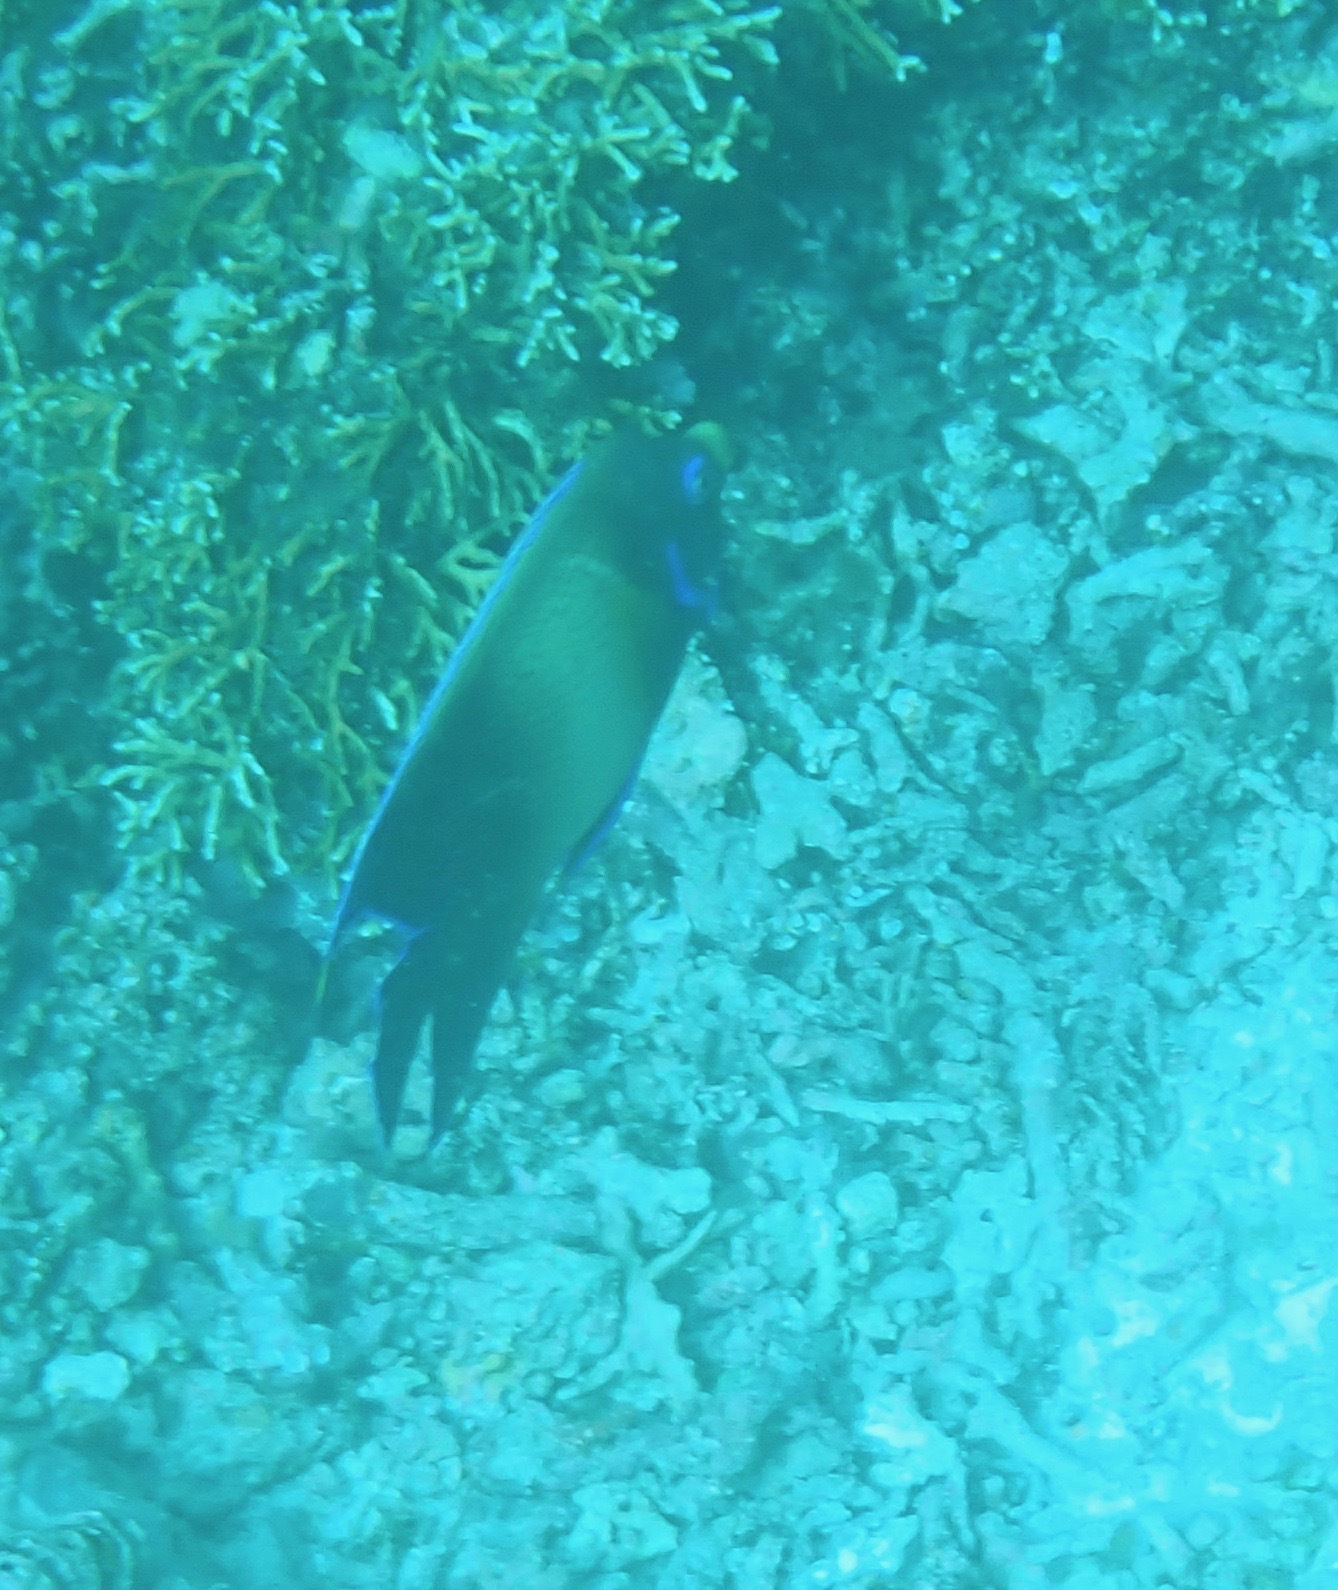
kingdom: Animalia
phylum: Chordata
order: Perciformes
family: Pomacanthidae
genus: Pomacanthus
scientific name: Pomacanthus semicirculatus
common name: Semicircle angelfish
